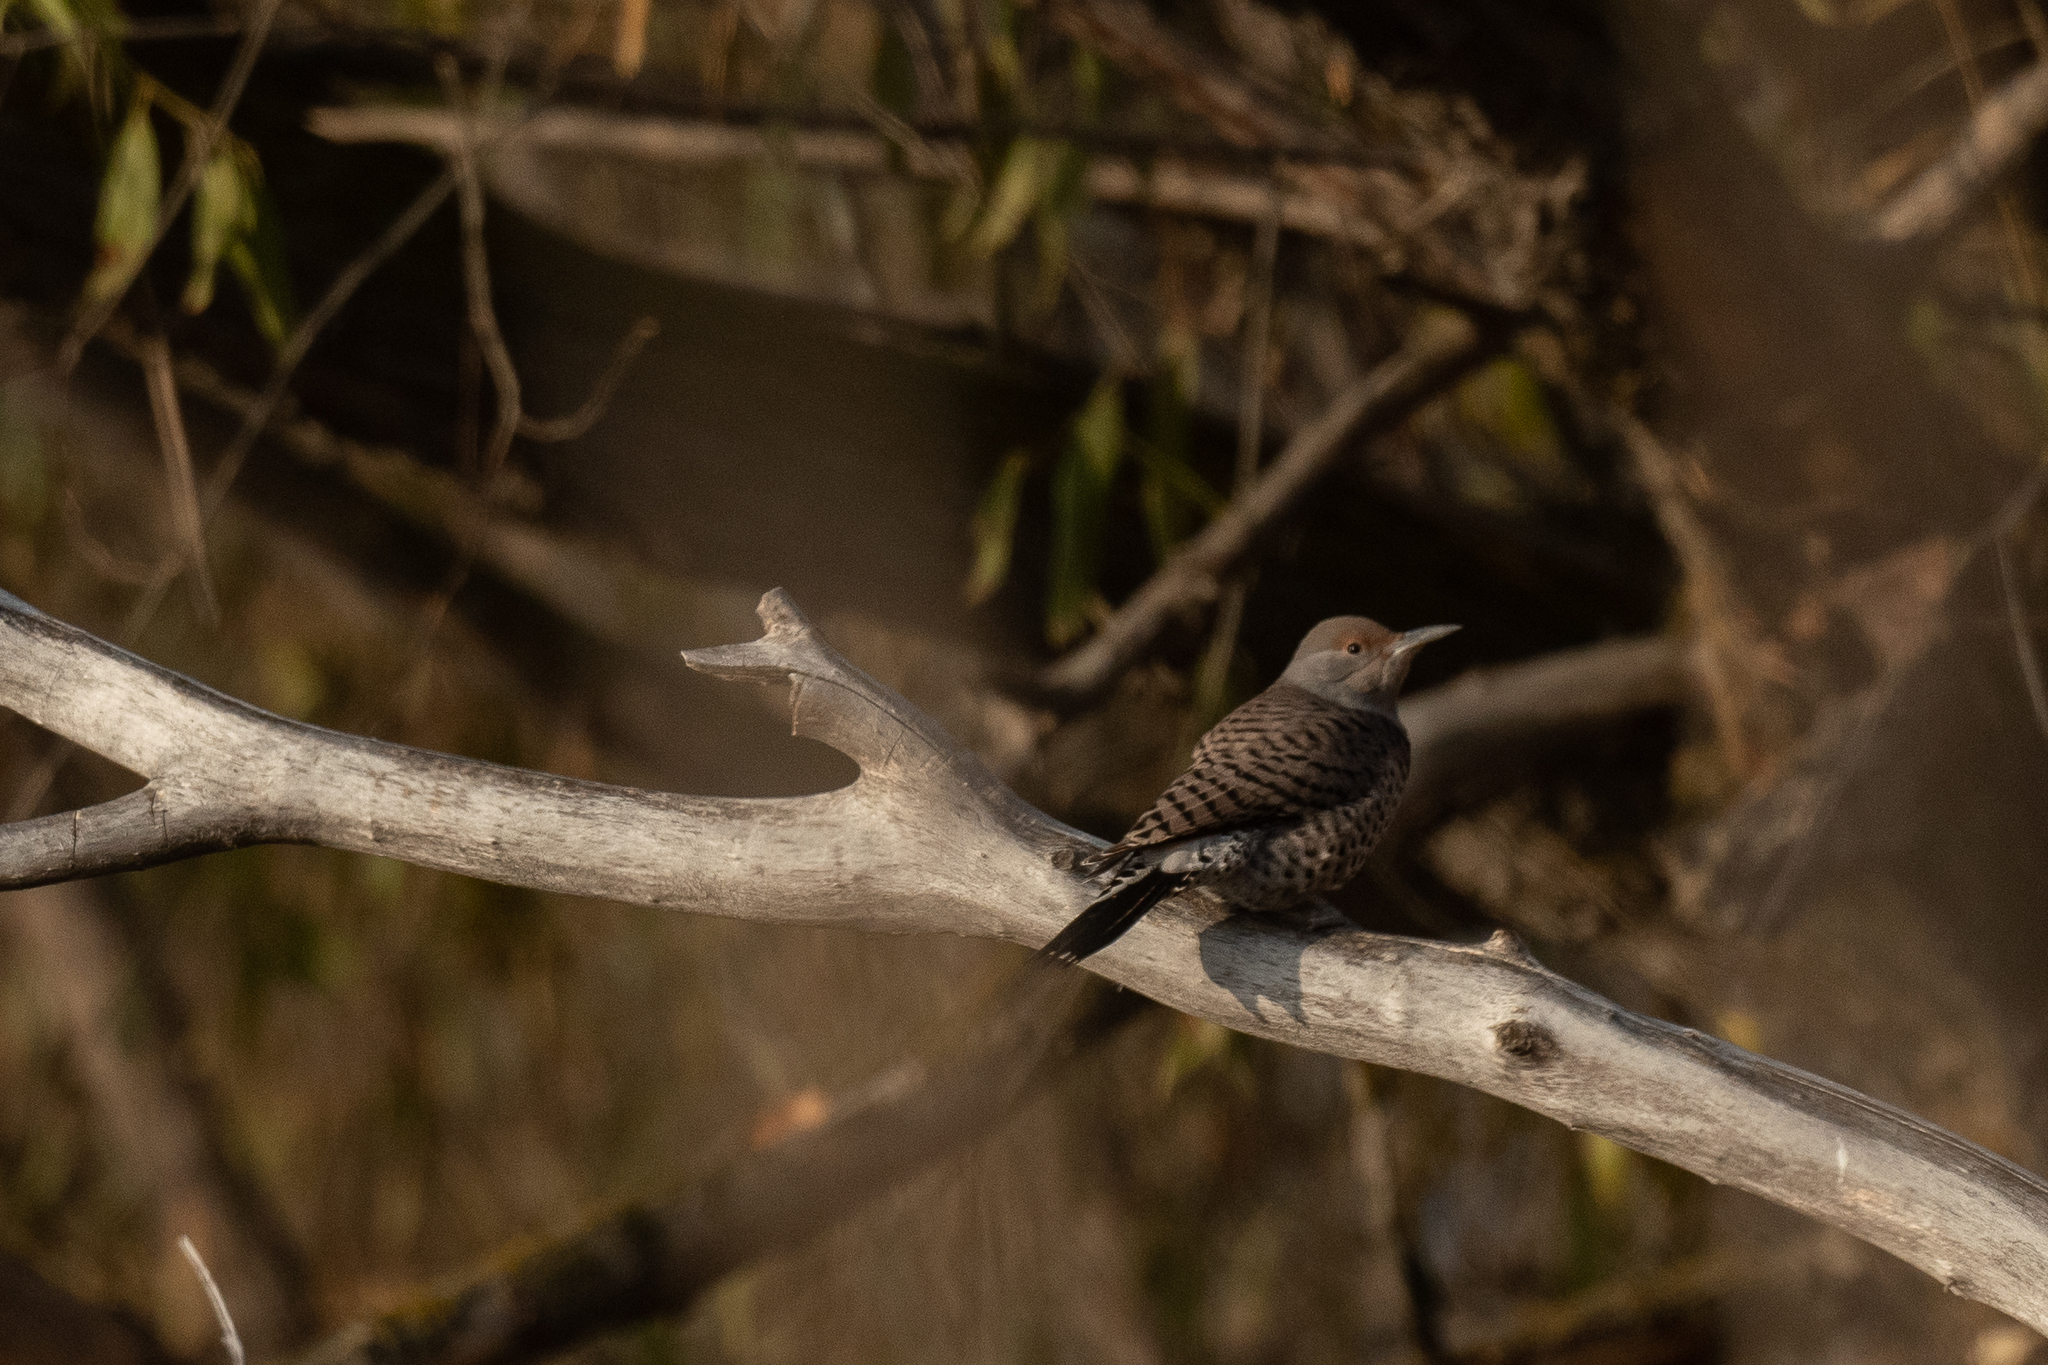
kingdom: Animalia
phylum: Chordata
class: Aves
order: Piciformes
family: Picidae
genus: Colaptes
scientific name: Colaptes auratus
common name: Northern flicker
